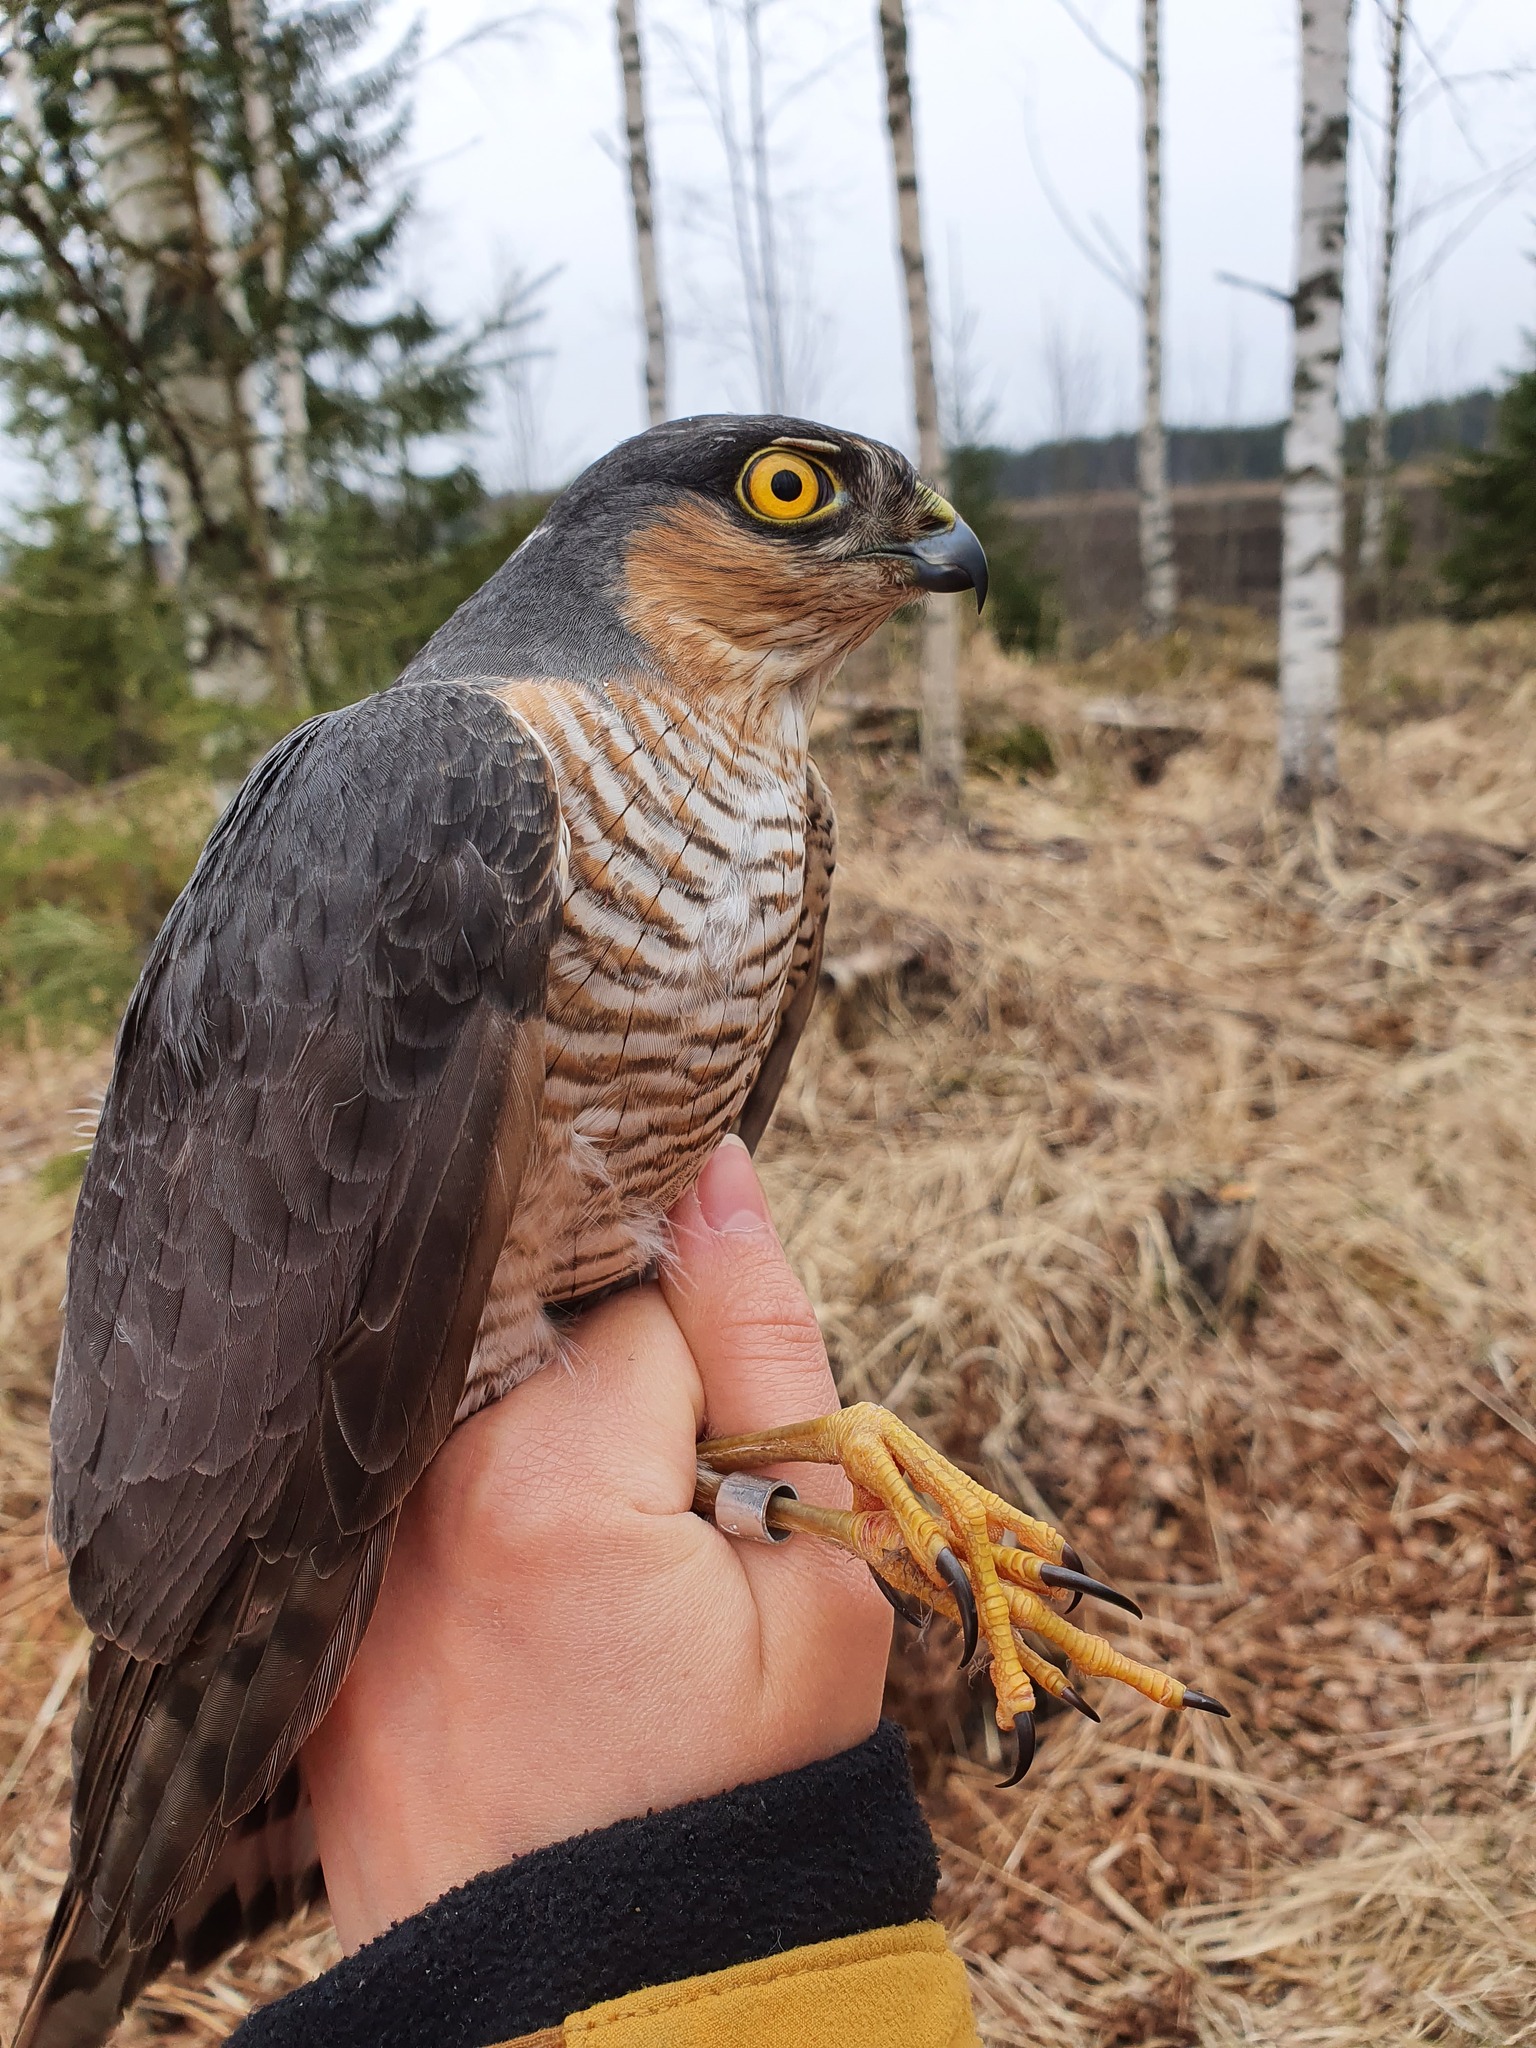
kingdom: Animalia
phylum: Chordata
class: Aves
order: Accipitriformes
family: Accipitridae
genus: Accipiter
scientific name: Accipiter nisus
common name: Eurasian sparrowhawk
